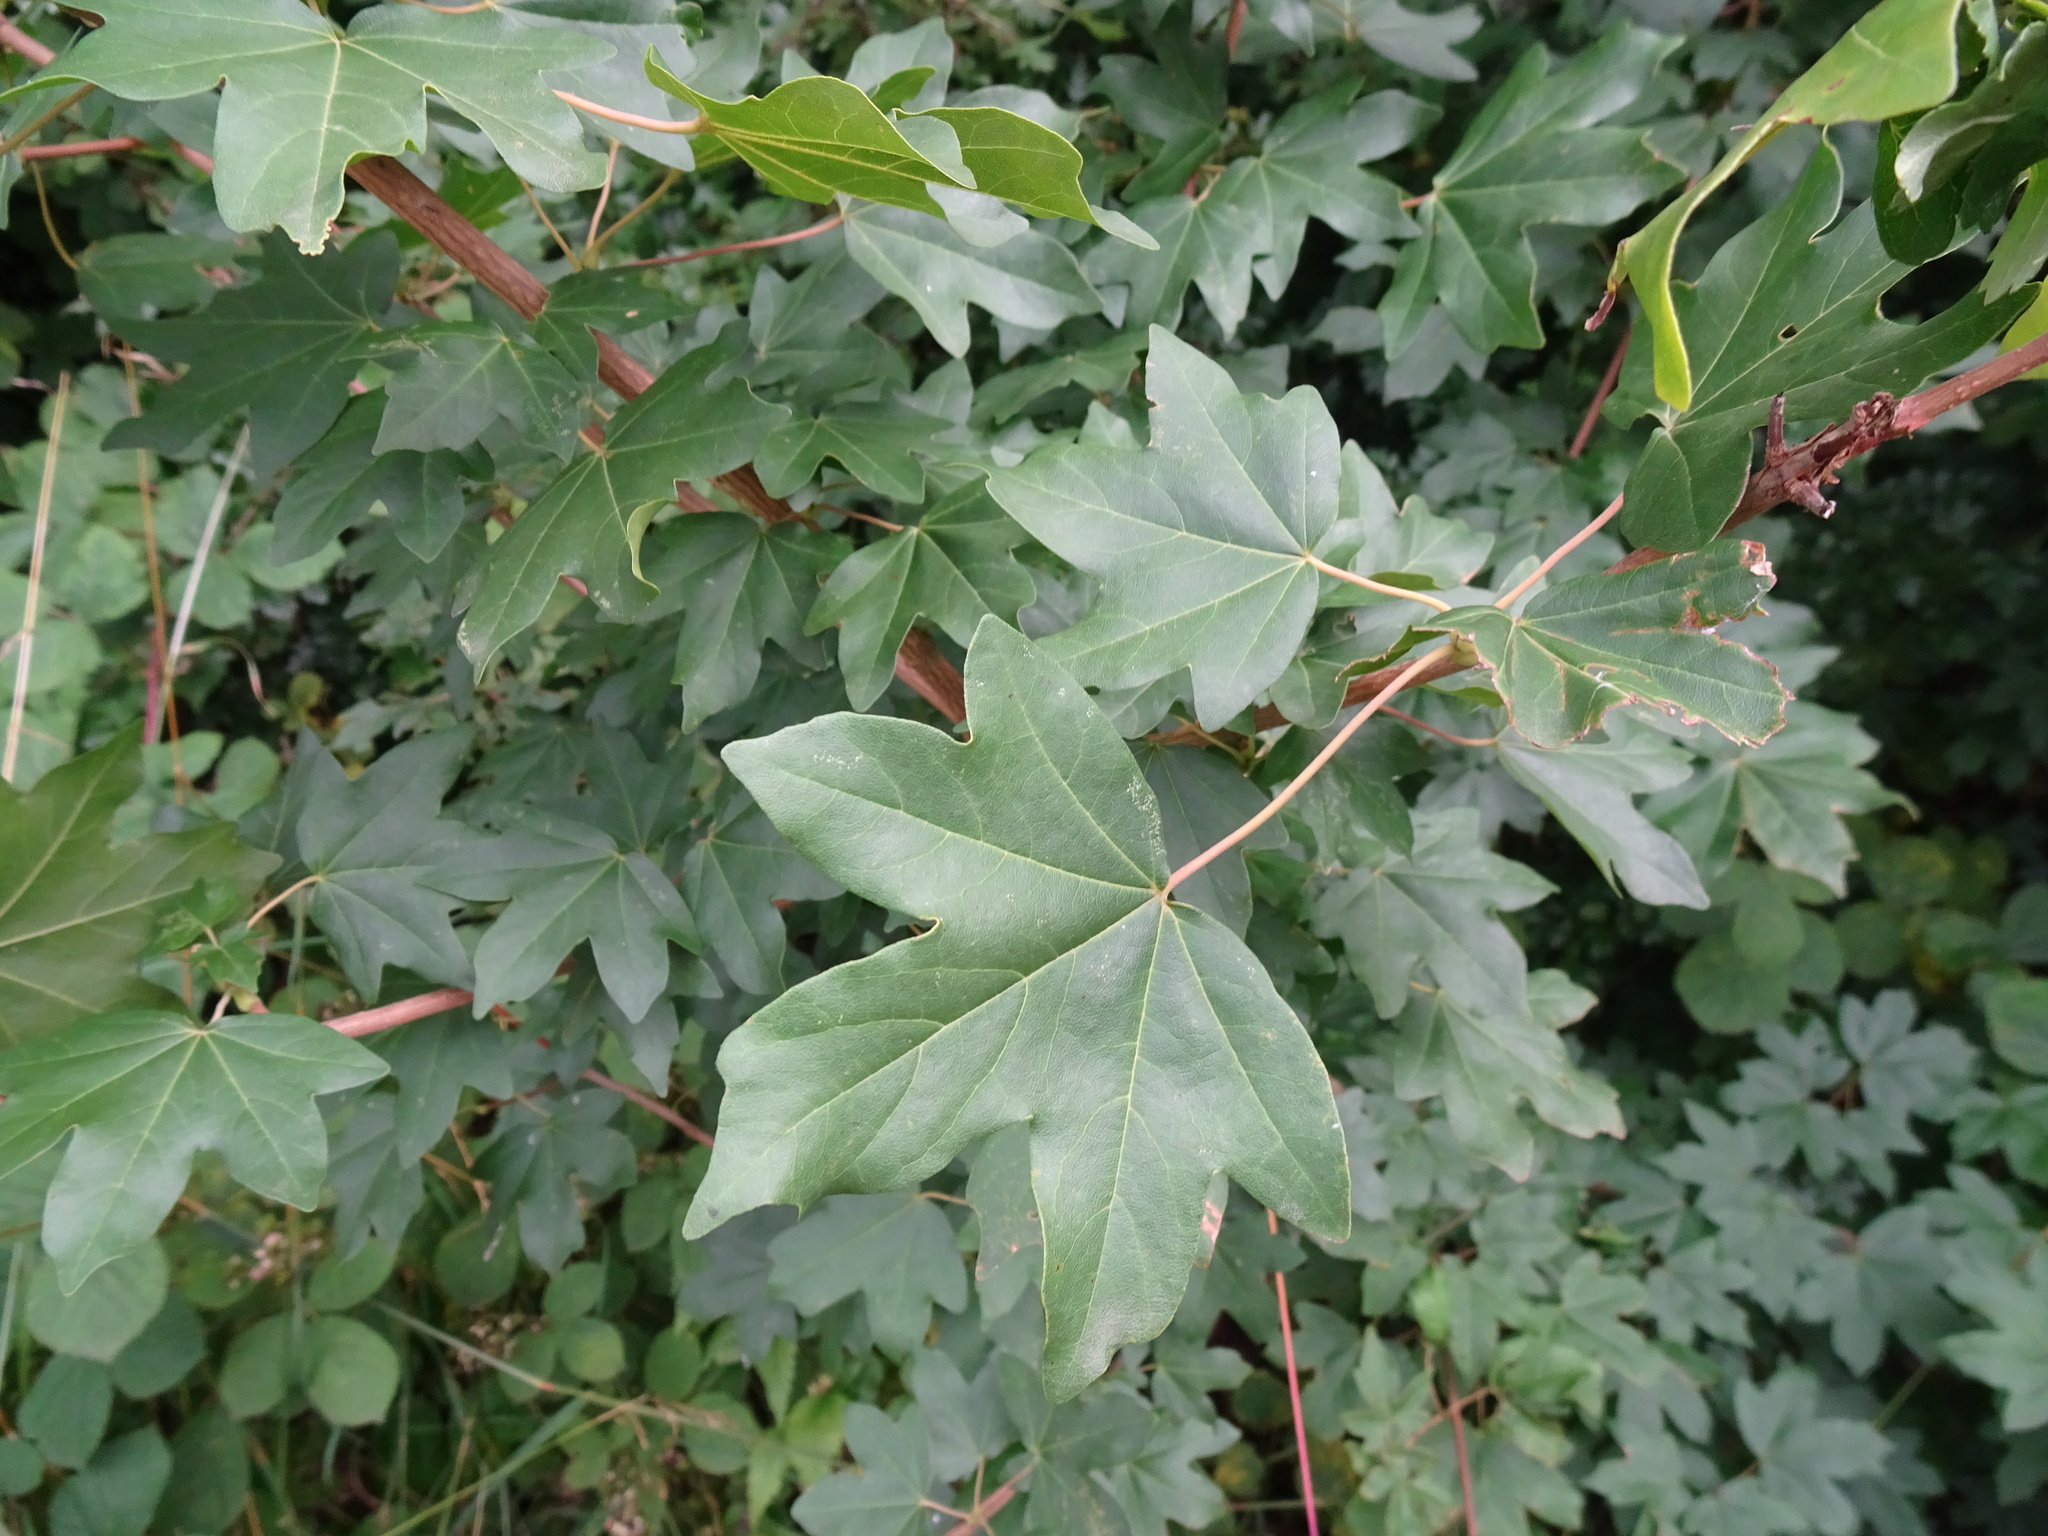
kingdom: Plantae
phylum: Tracheophyta
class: Magnoliopsida
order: Sapindales
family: Sapindaceae
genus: Acer
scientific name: Acer campestre
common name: Field maple
